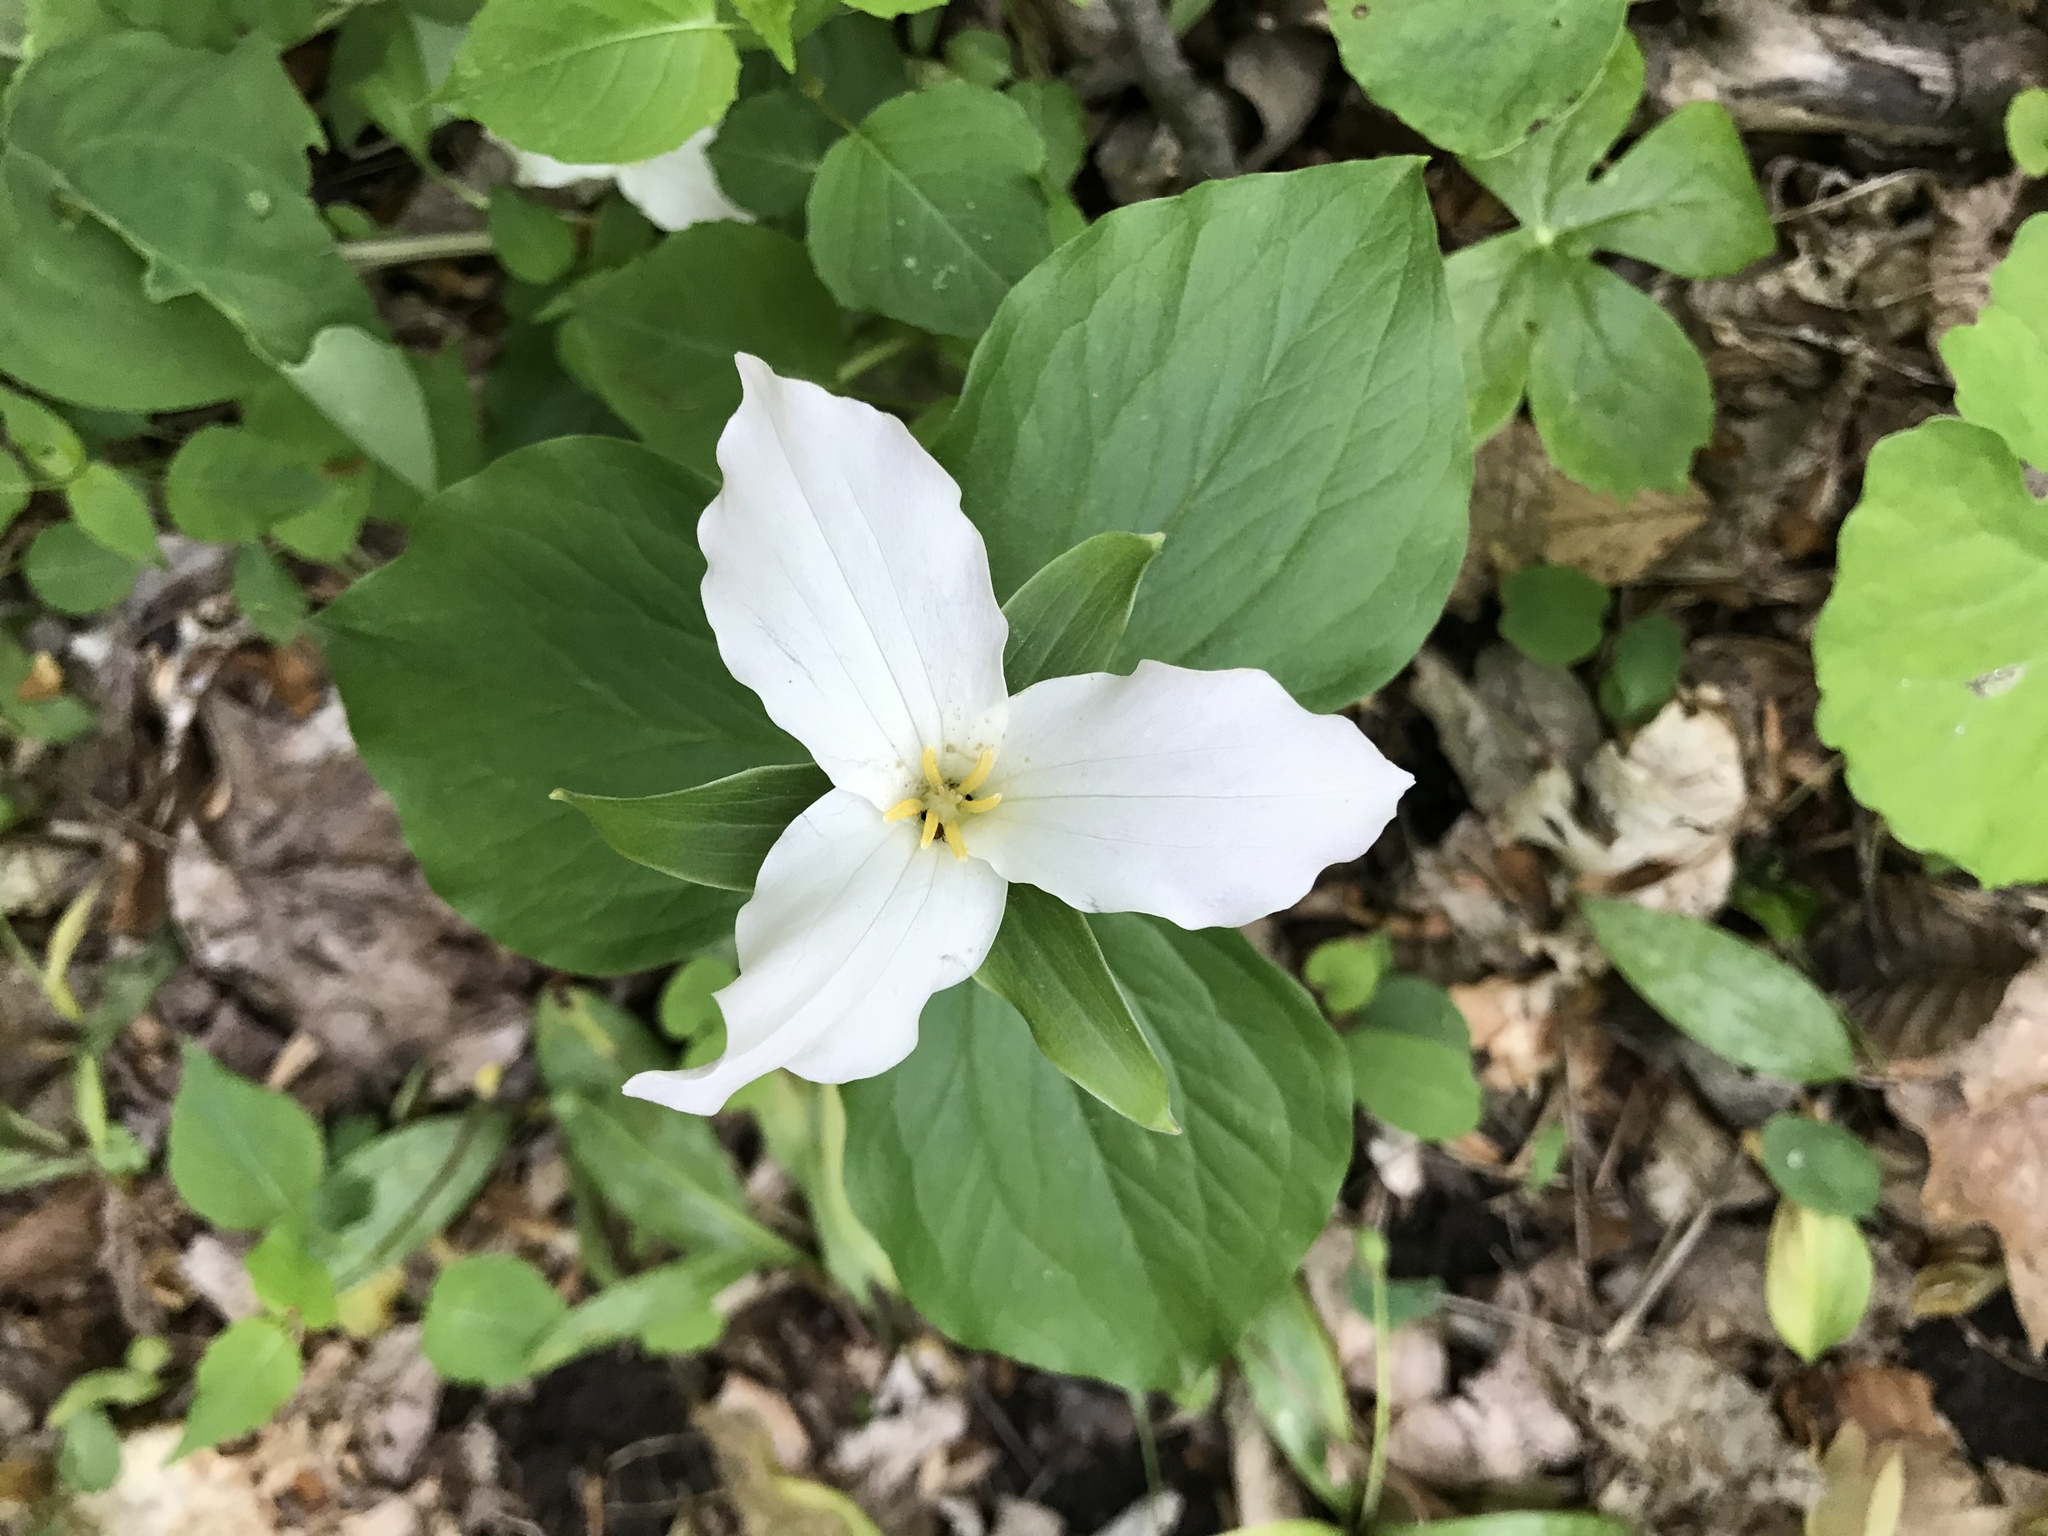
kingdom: Plantae
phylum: Tracheophyta
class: Liliopsida
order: Liliales
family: Melanthiaceae
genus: Trillium
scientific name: Trillium grandiflorum
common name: Great white trillium
